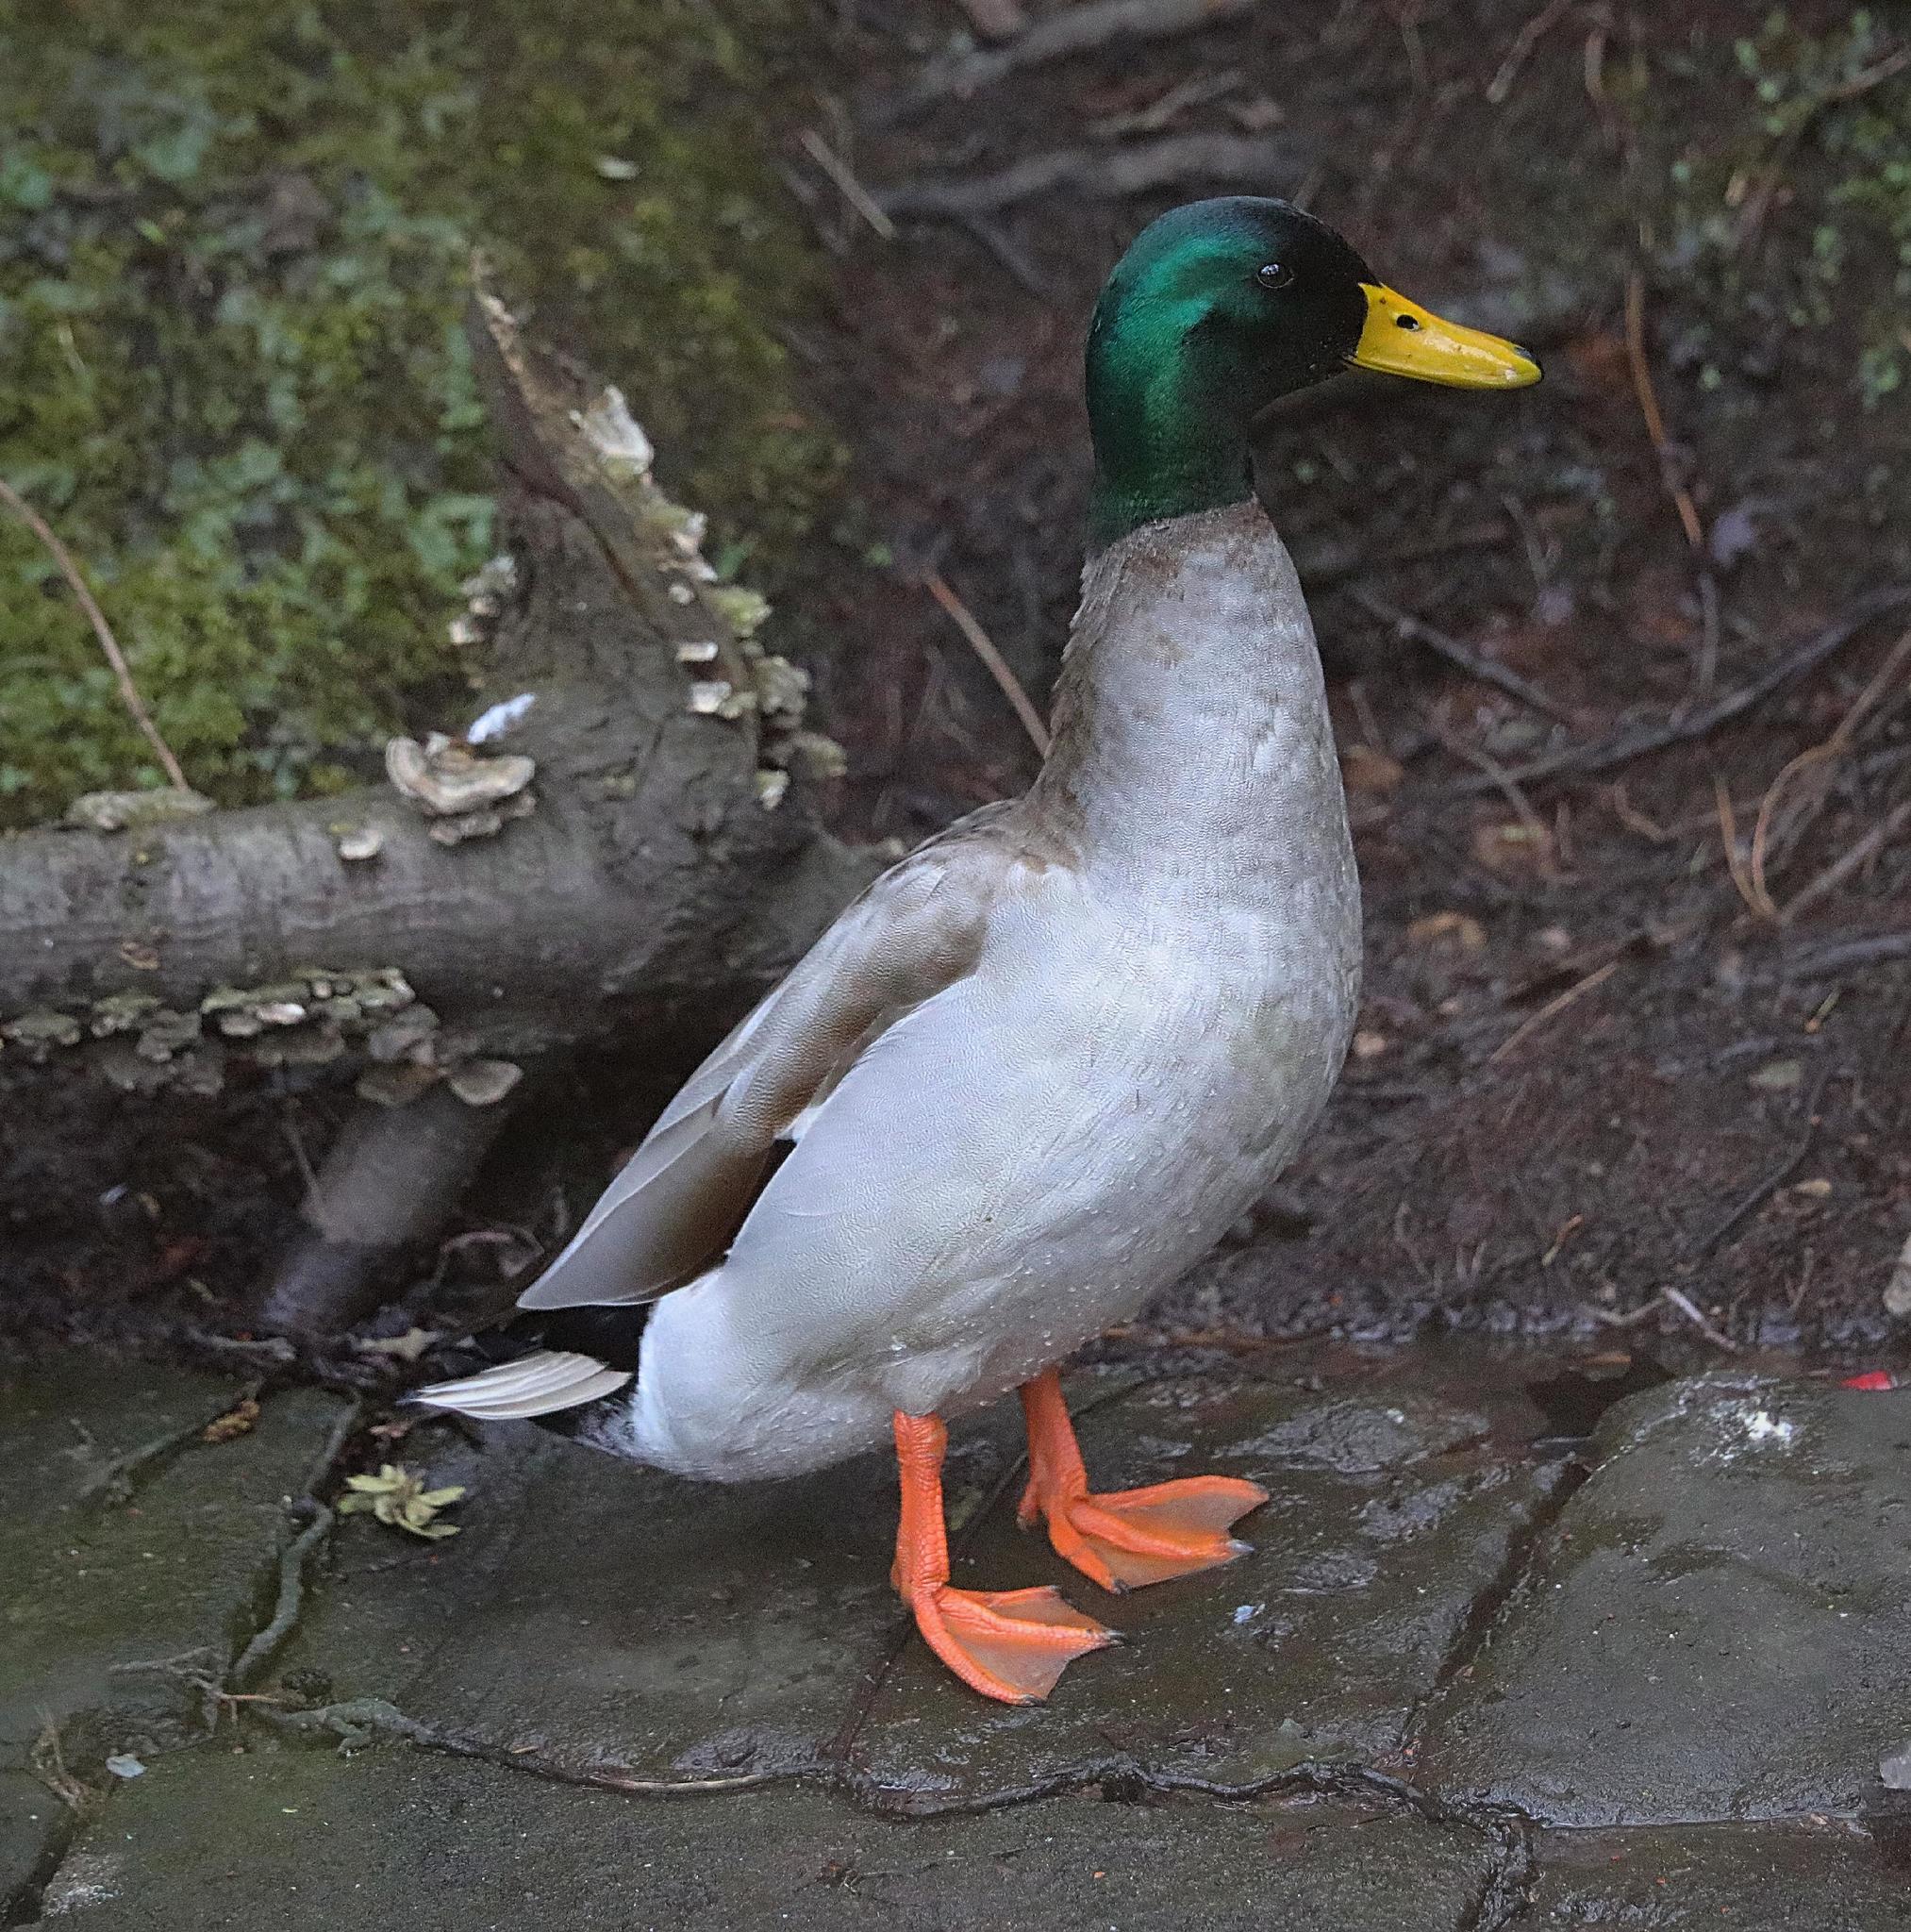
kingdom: Animalia
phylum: Chordata
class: Aves
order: Anseriformes
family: Anatidae
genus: Anas
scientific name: Anas platyrhynchos
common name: Mallard
